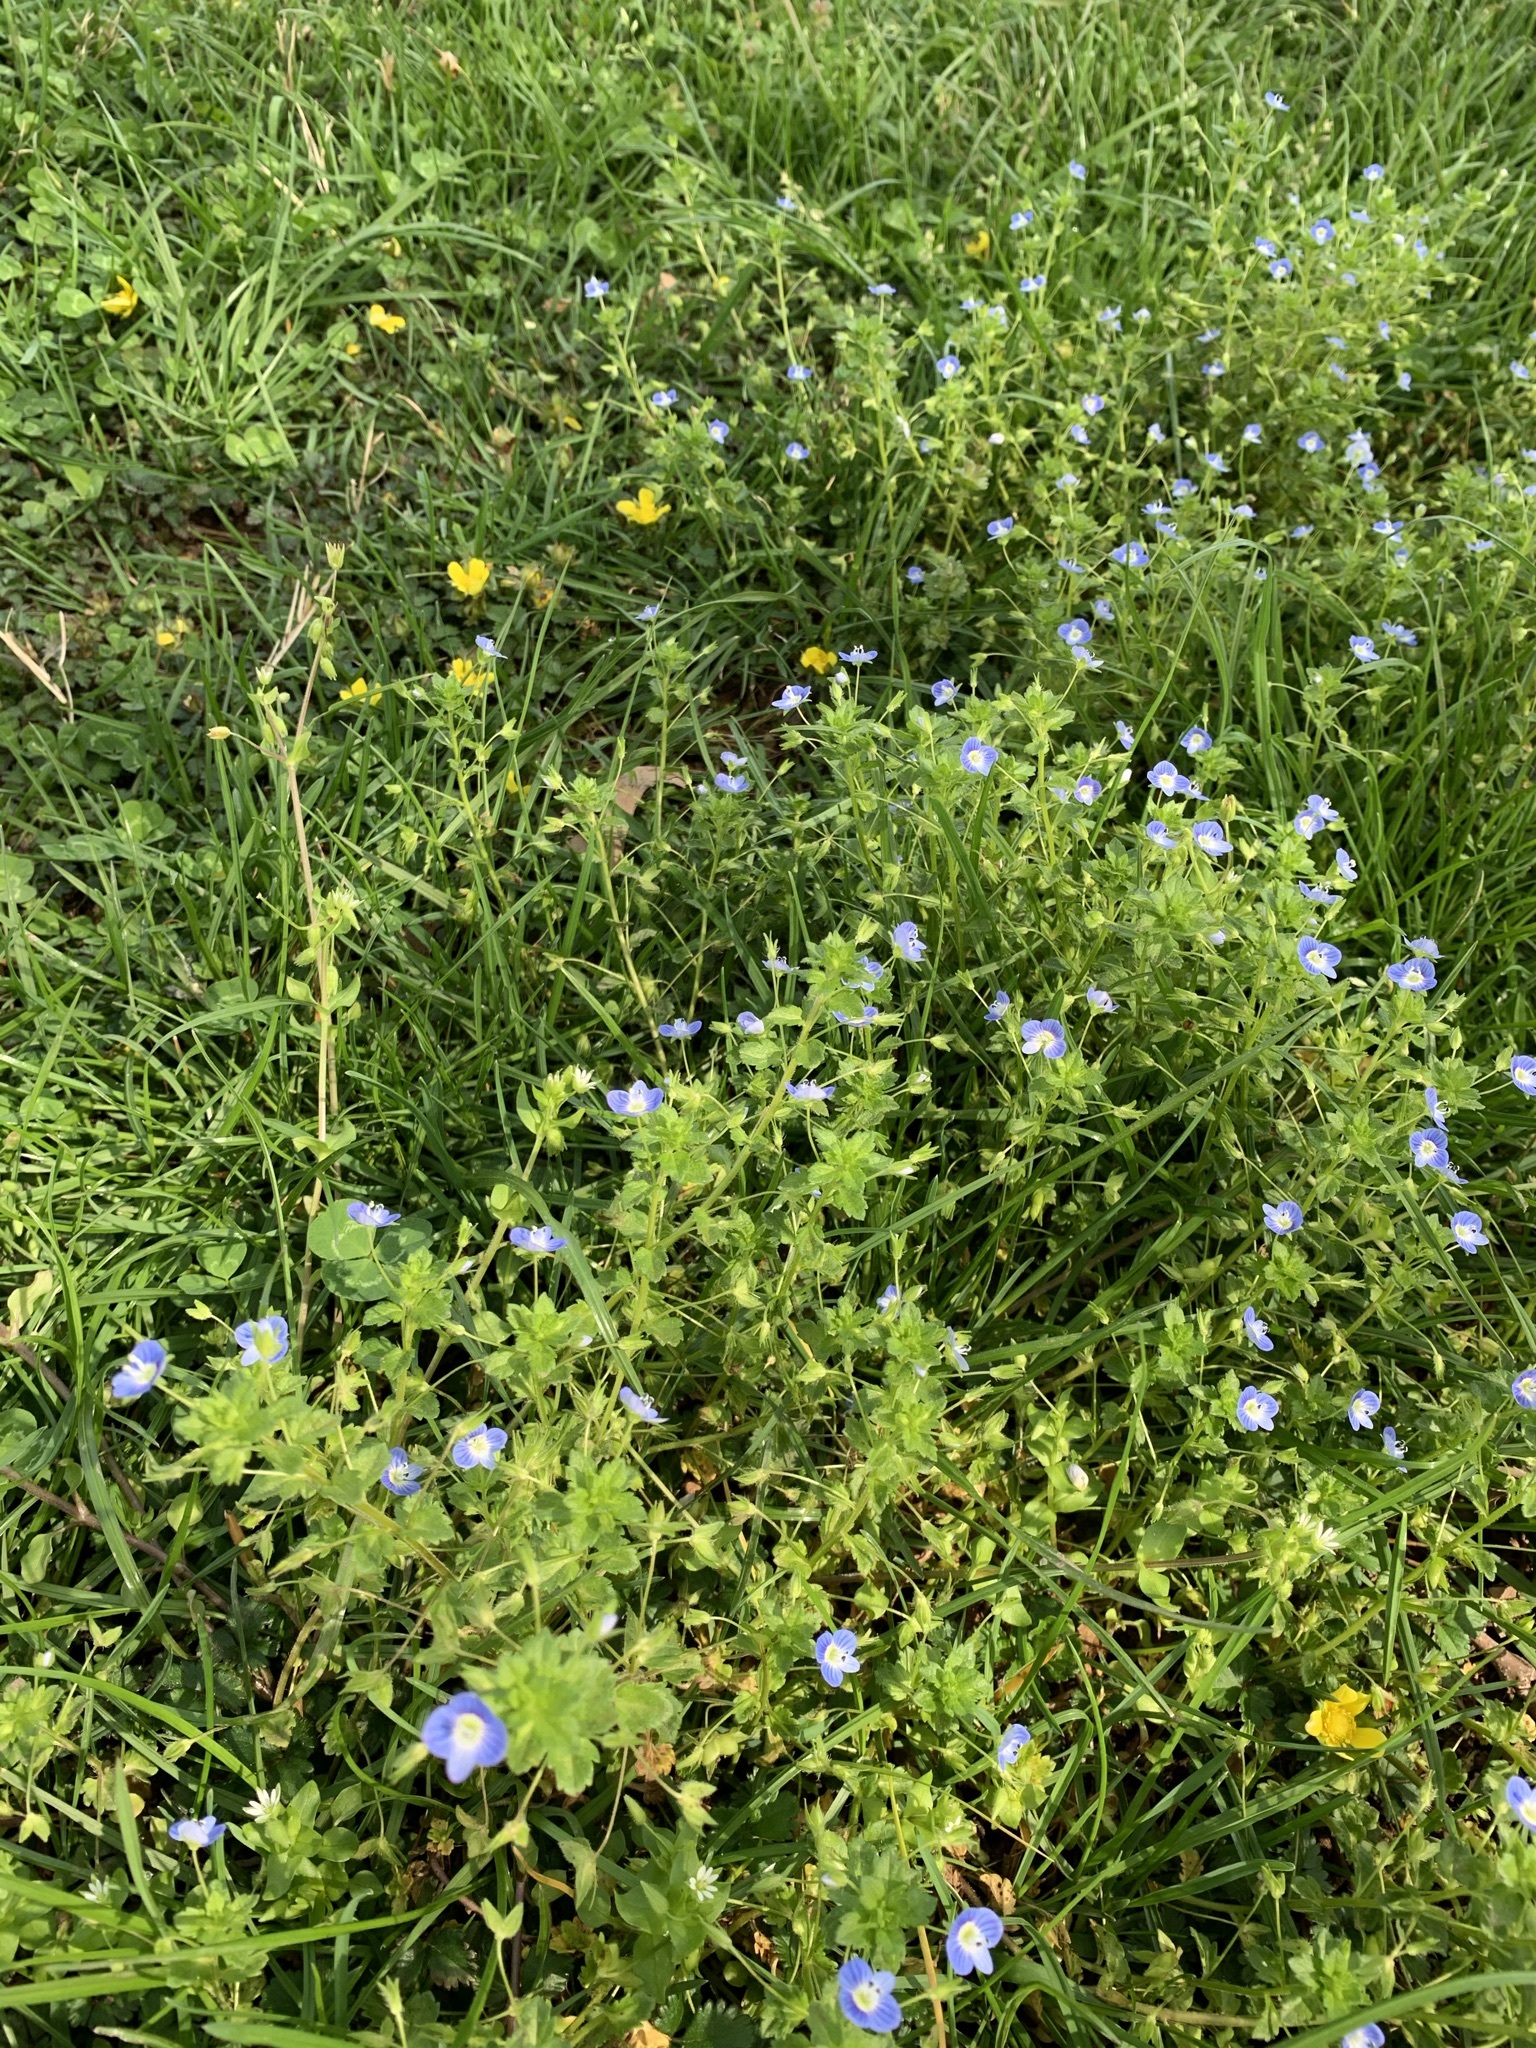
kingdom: Plantae
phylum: Tracheophyta
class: Magnoliopsida
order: Lamiales
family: Plantaginaceae
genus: Veronica
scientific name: Veronica persica
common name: Common field-speedwell
